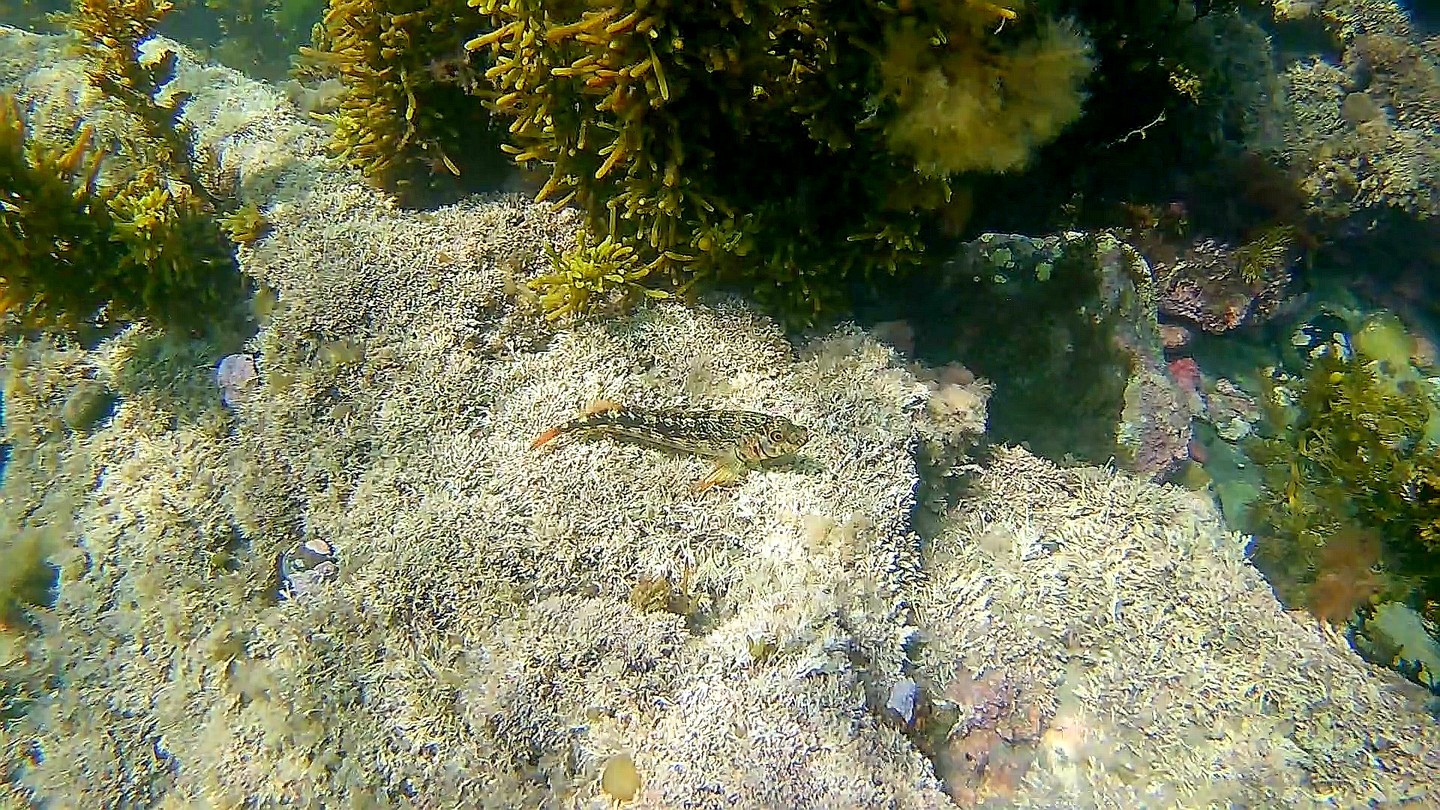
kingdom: Animalia
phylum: Chordata
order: Perciformes
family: Tripterygiidae
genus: Forsterygion
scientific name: Forsterygion varium
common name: Variable triplefin
